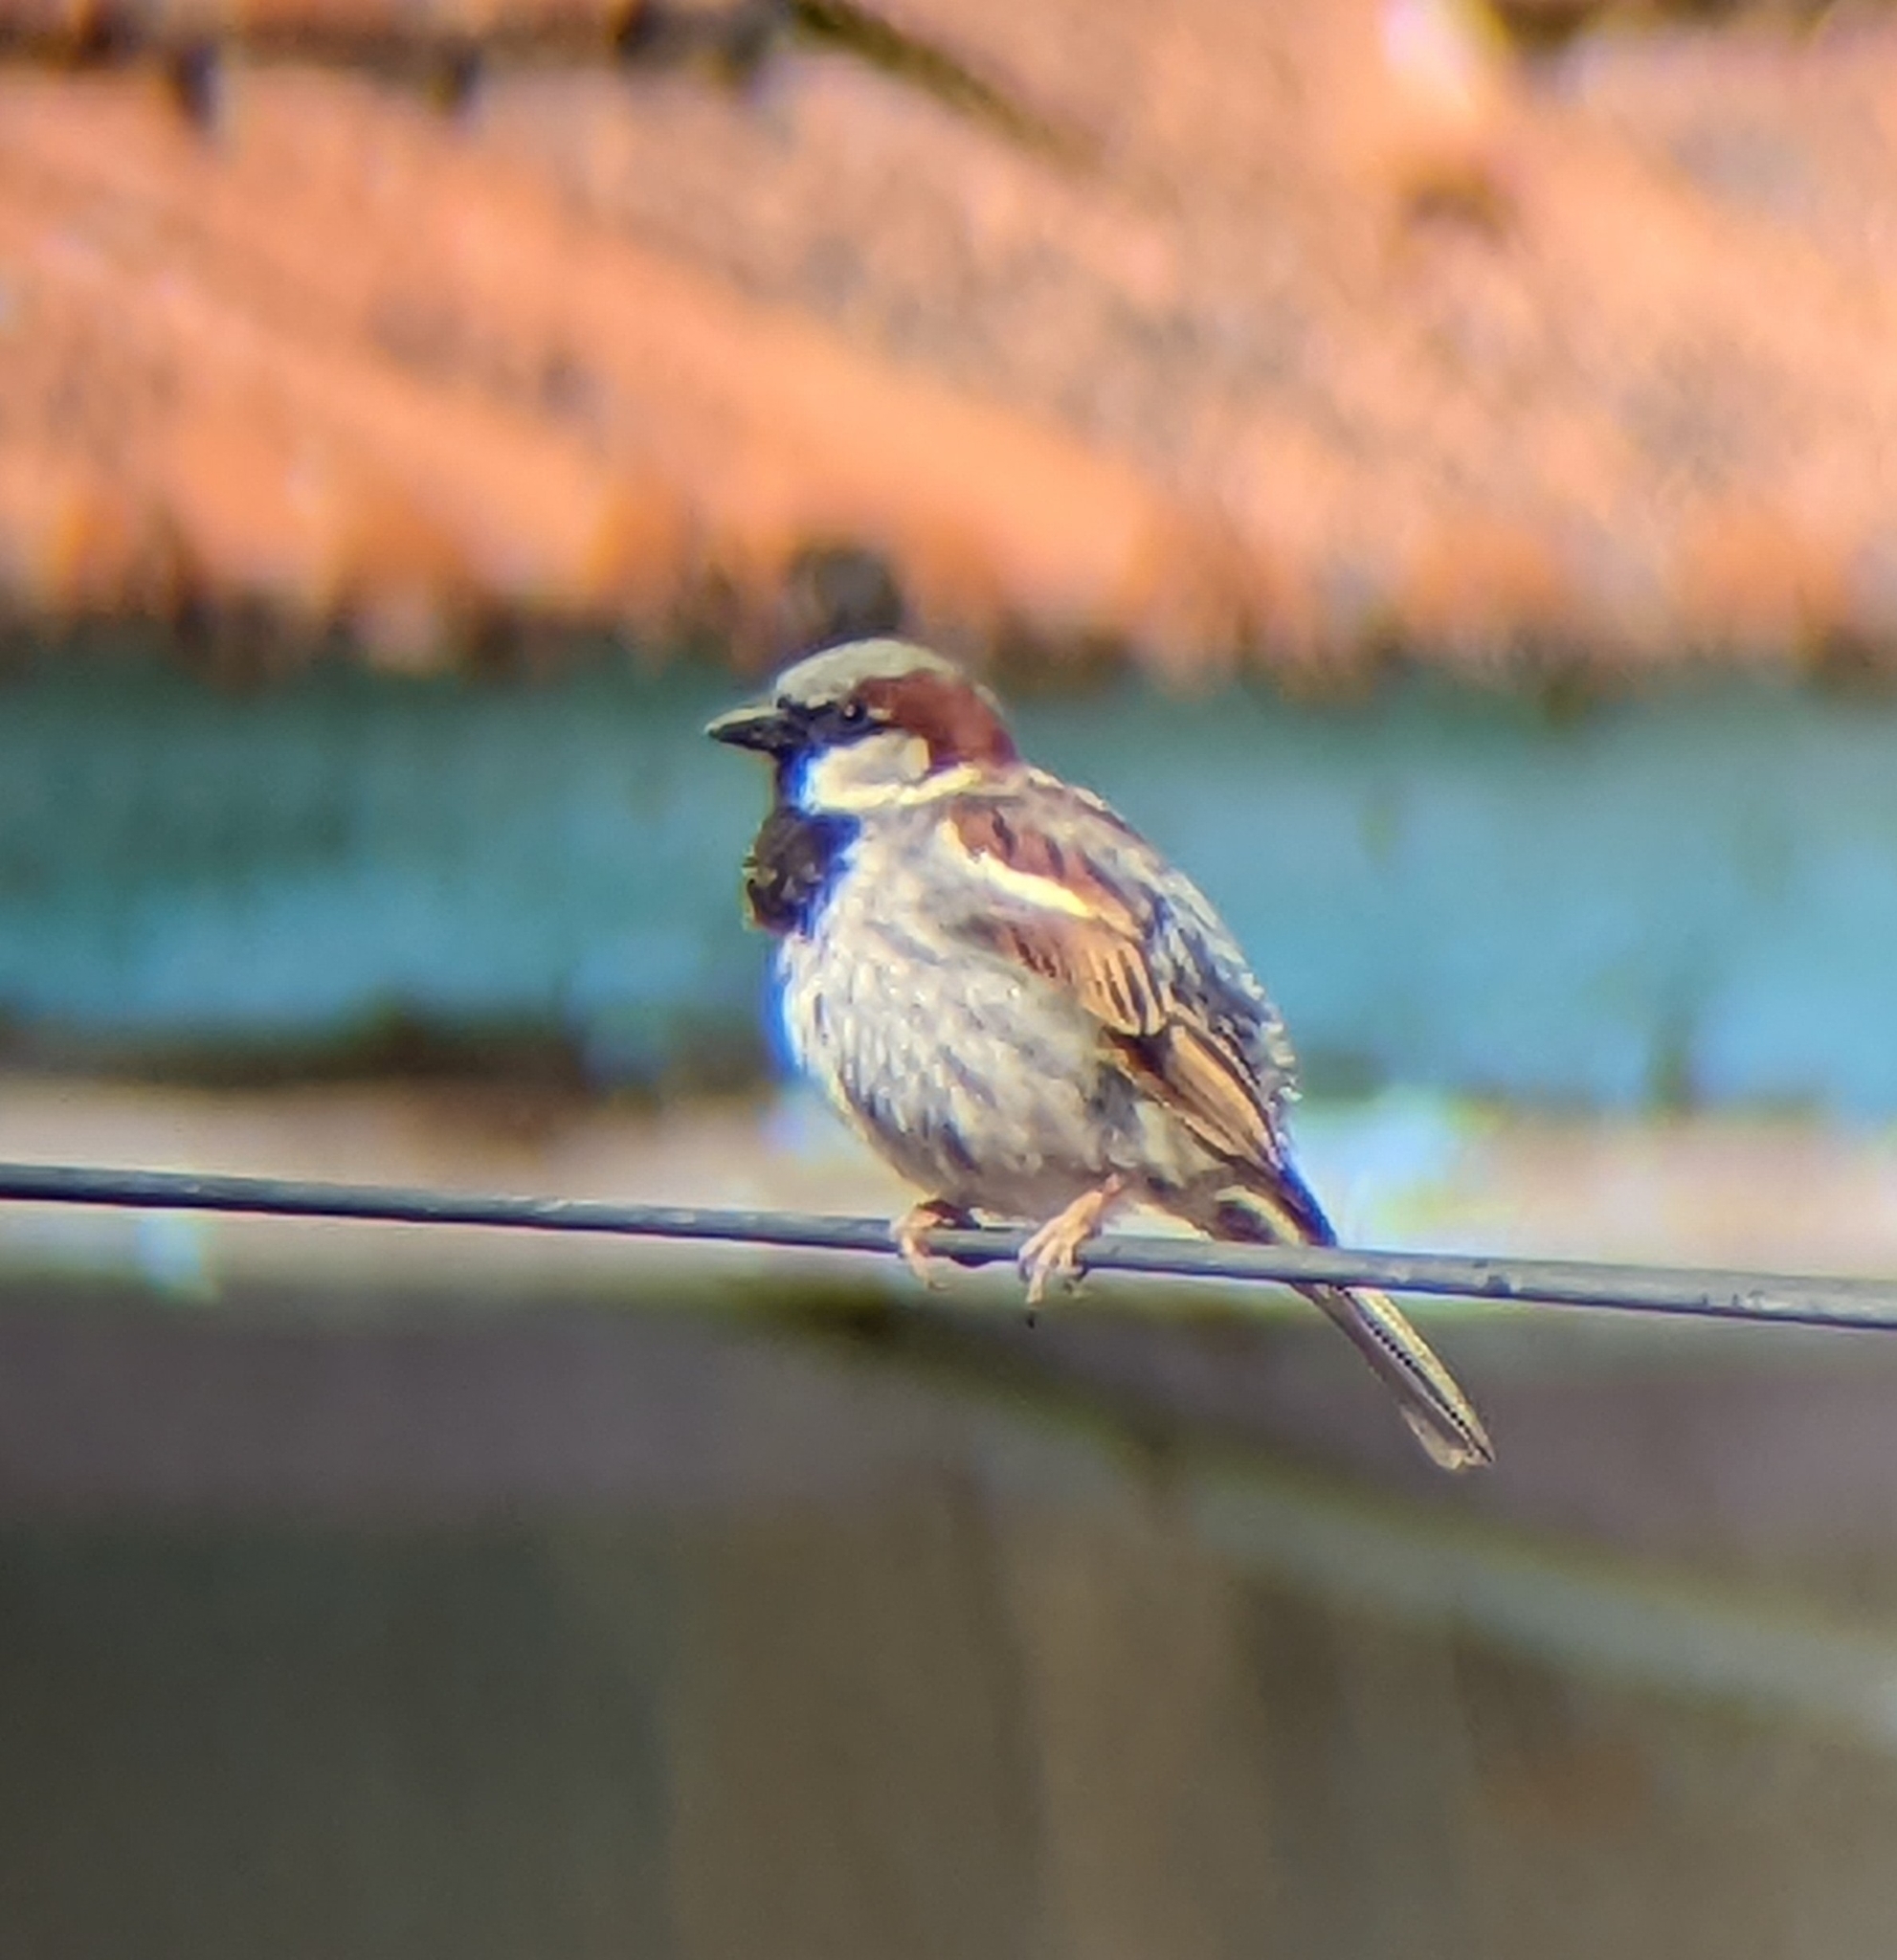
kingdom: Animalia
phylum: Chordata
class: Aves
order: Passeriformes
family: Passeridae
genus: Passer
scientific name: Passer domesticus
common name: House sparrow
